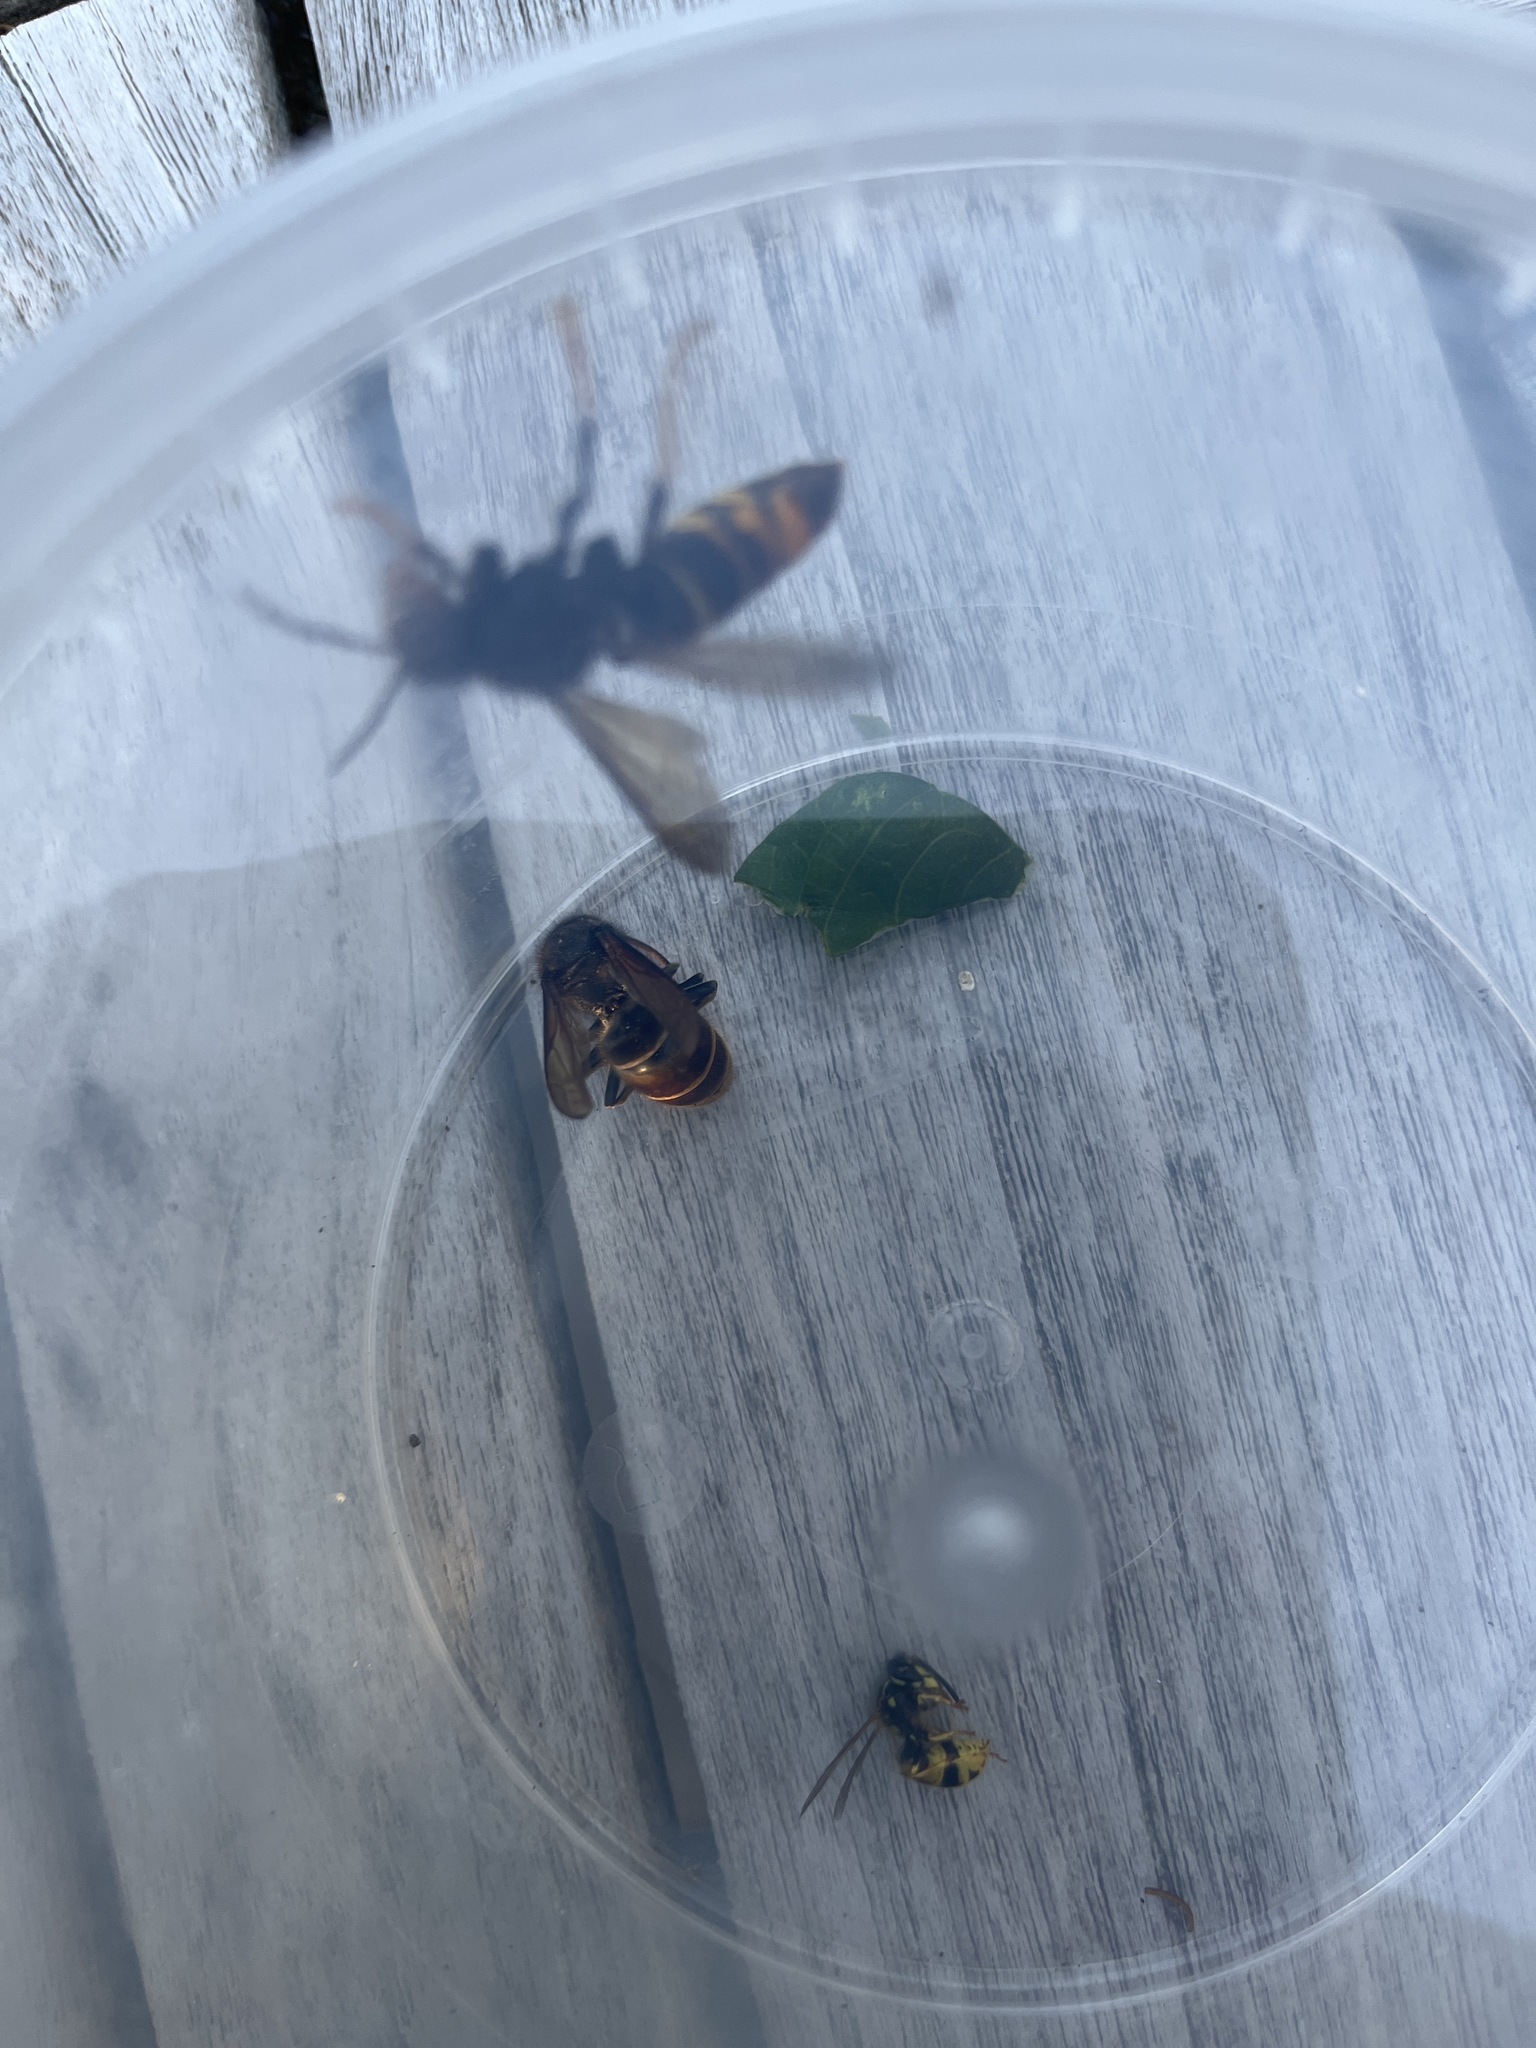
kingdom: Animalia
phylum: Arthropoda
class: Insecta
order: Hymenoptera
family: Vespidae
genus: Vespa
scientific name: Vespa velutina
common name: Asian hornet
